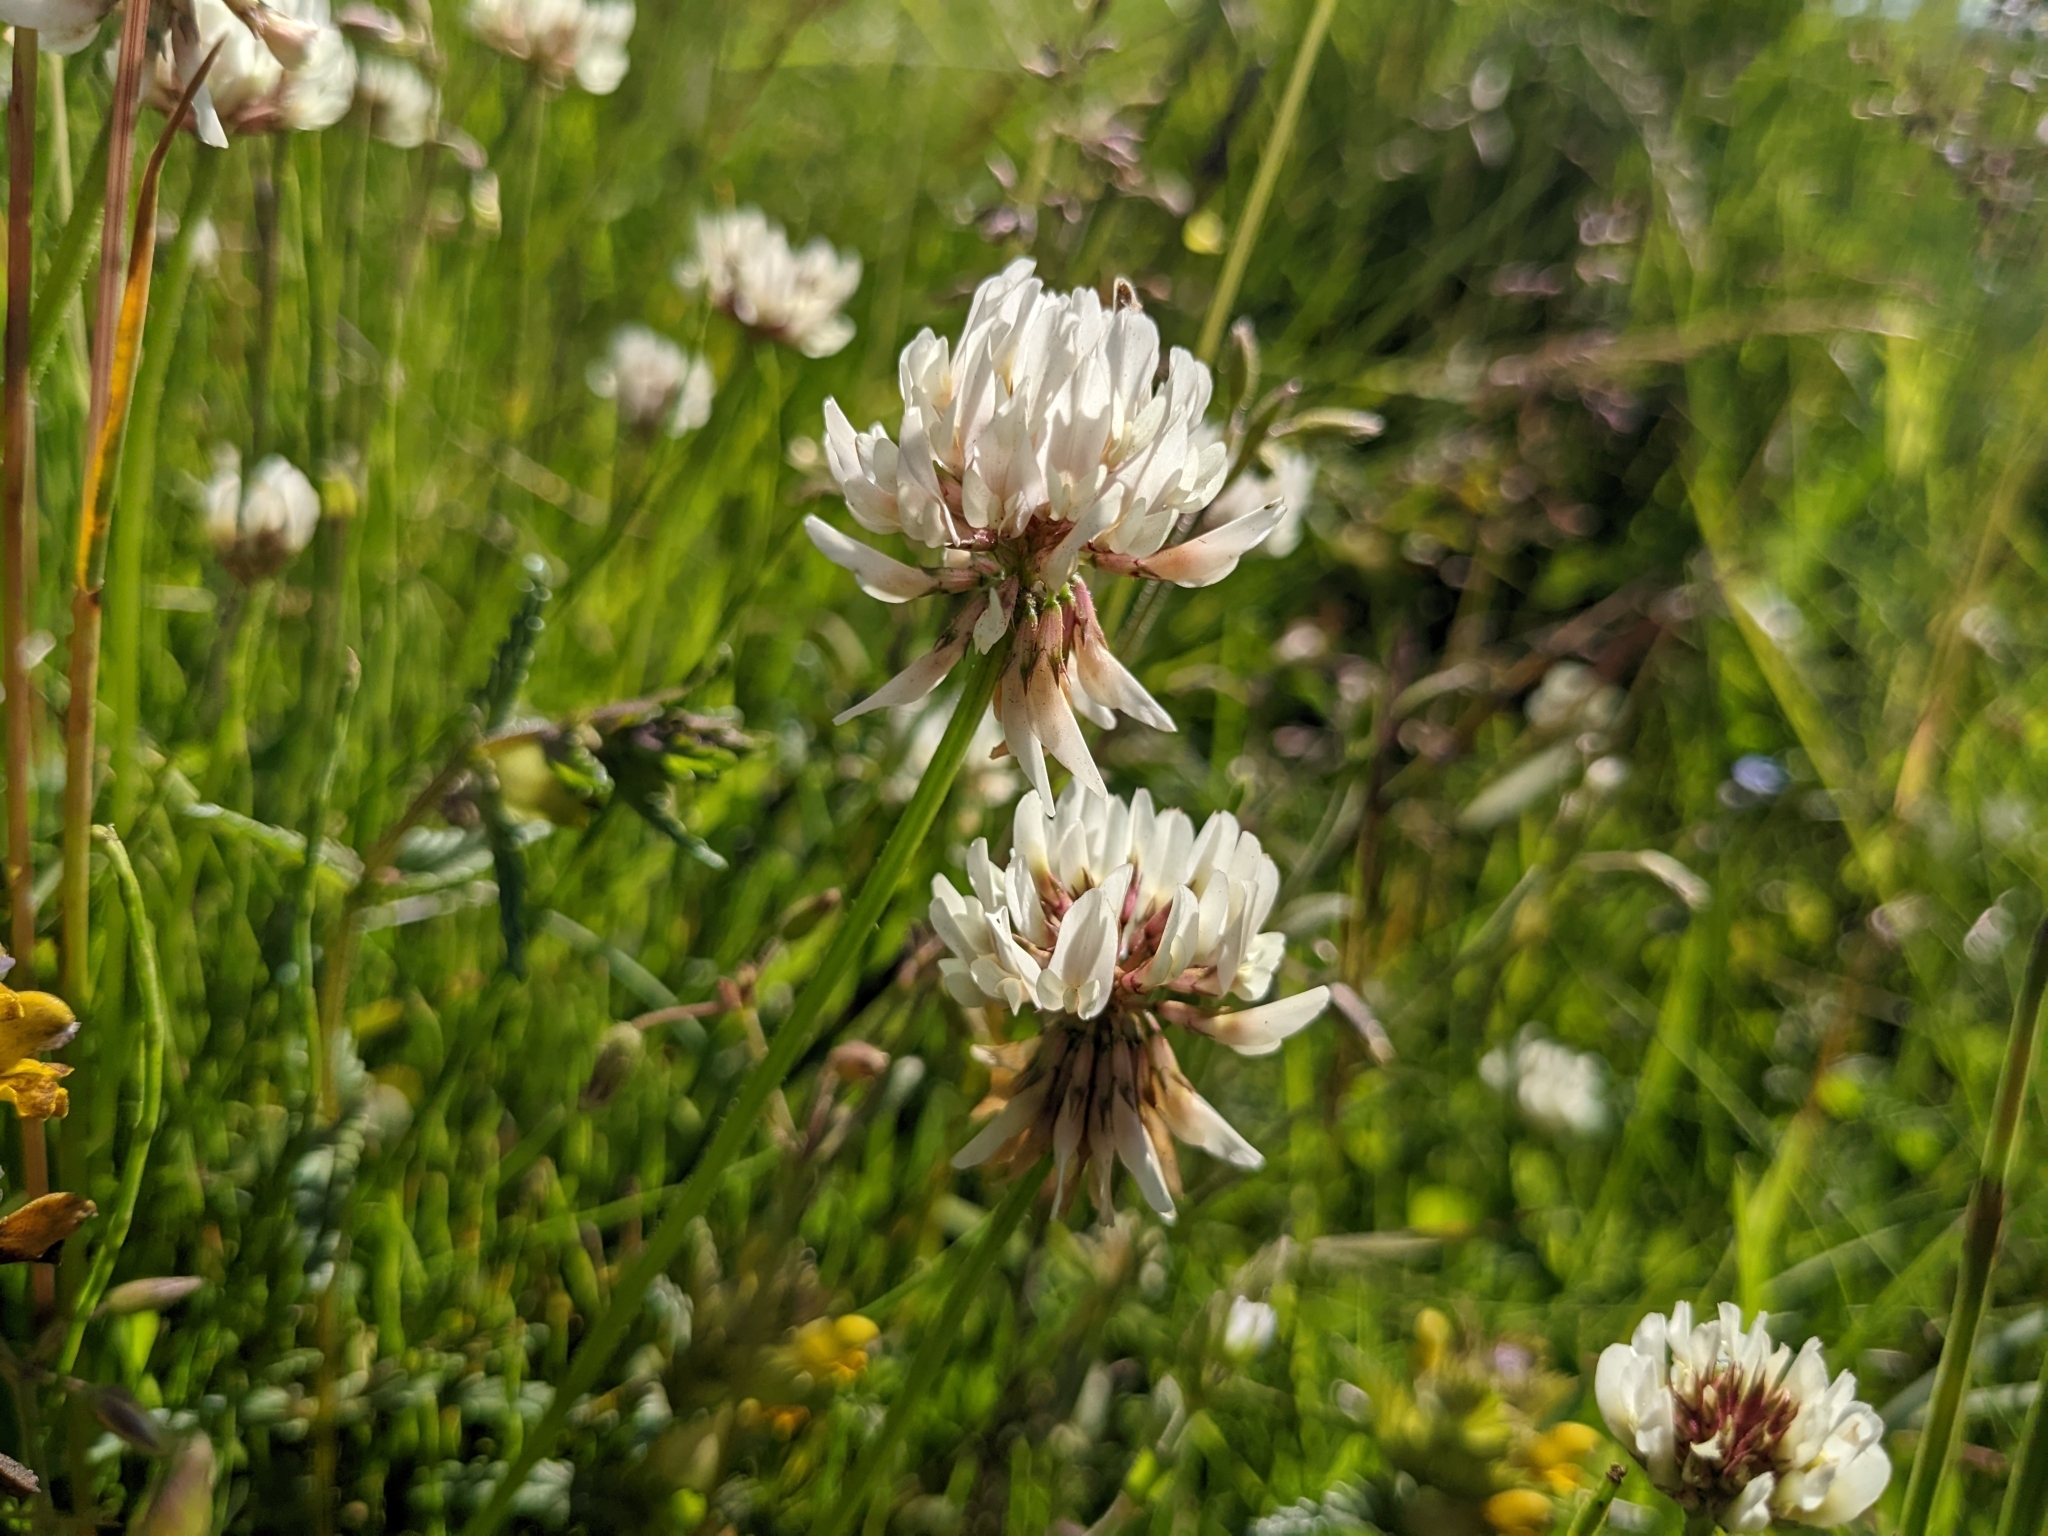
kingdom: Plantae
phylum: Tracheophyta
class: Magnoliopsida
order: Fabales
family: Fabaceae
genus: Trifolium
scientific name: Trifolium repens
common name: White clover
